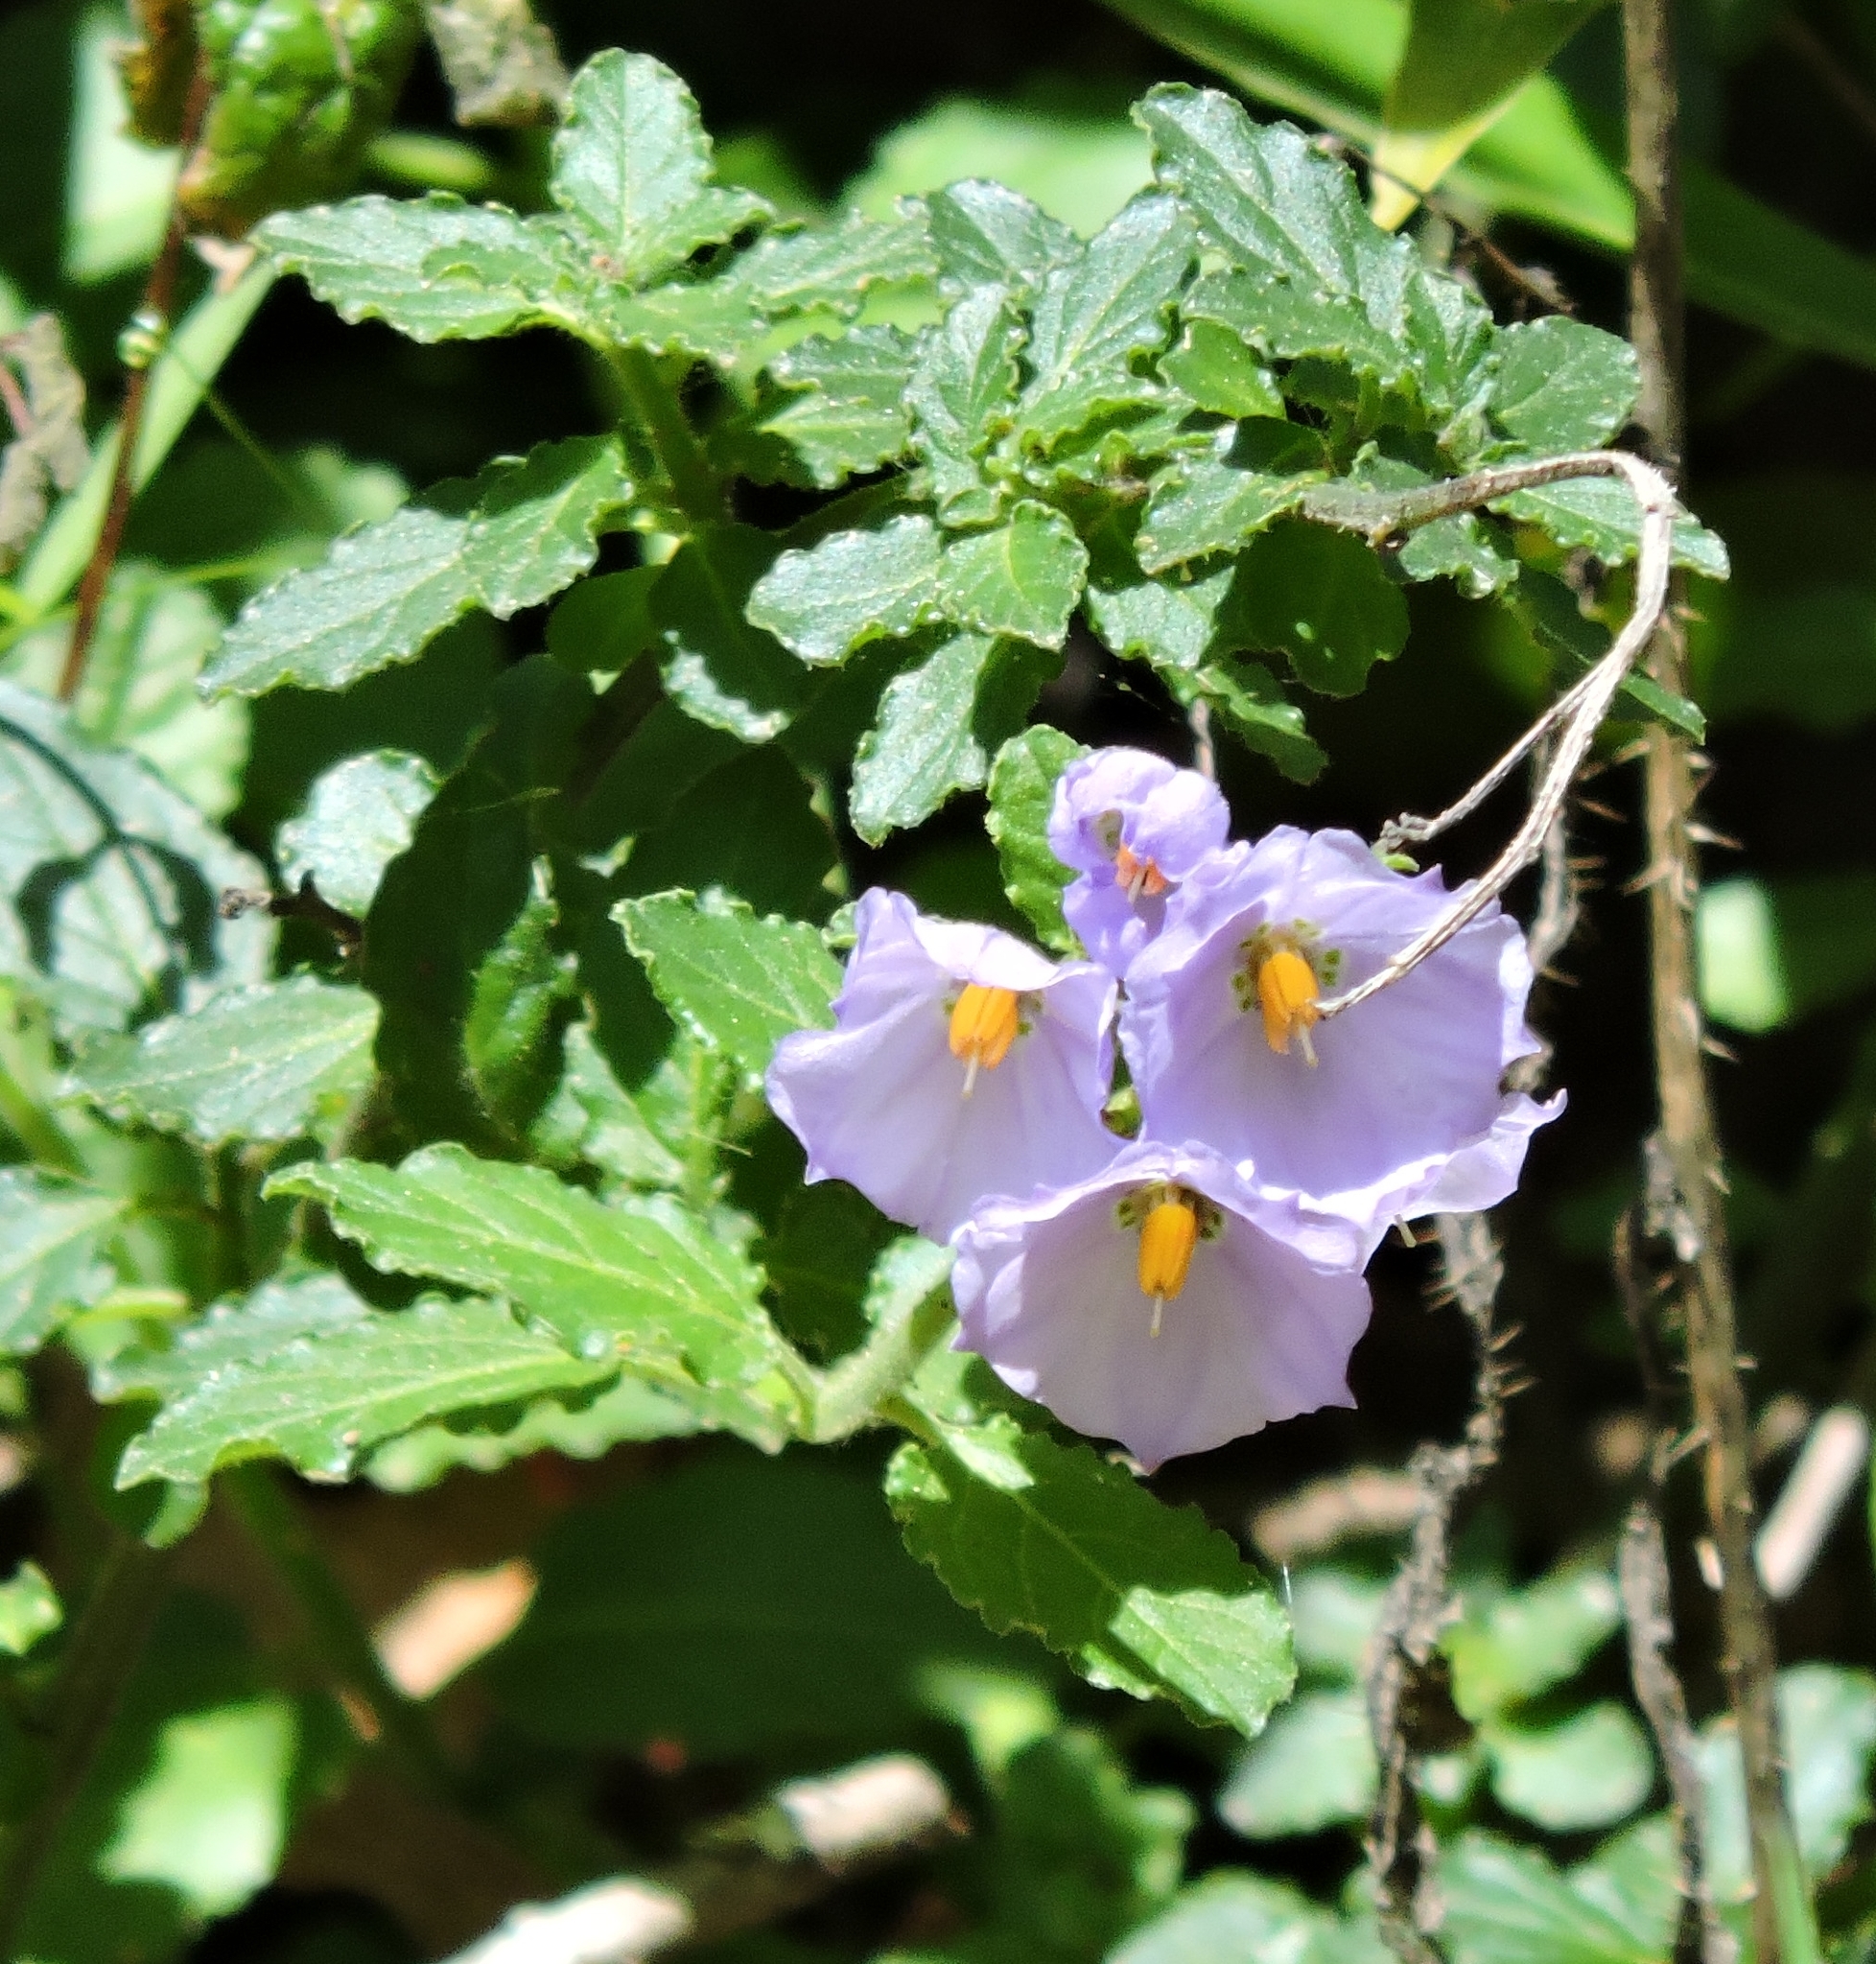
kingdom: Plantae
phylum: Tracheophyta
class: Magnoliopsida
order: Solanales
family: Solanaceae
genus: Solanum
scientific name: Solanum umbelliferum
